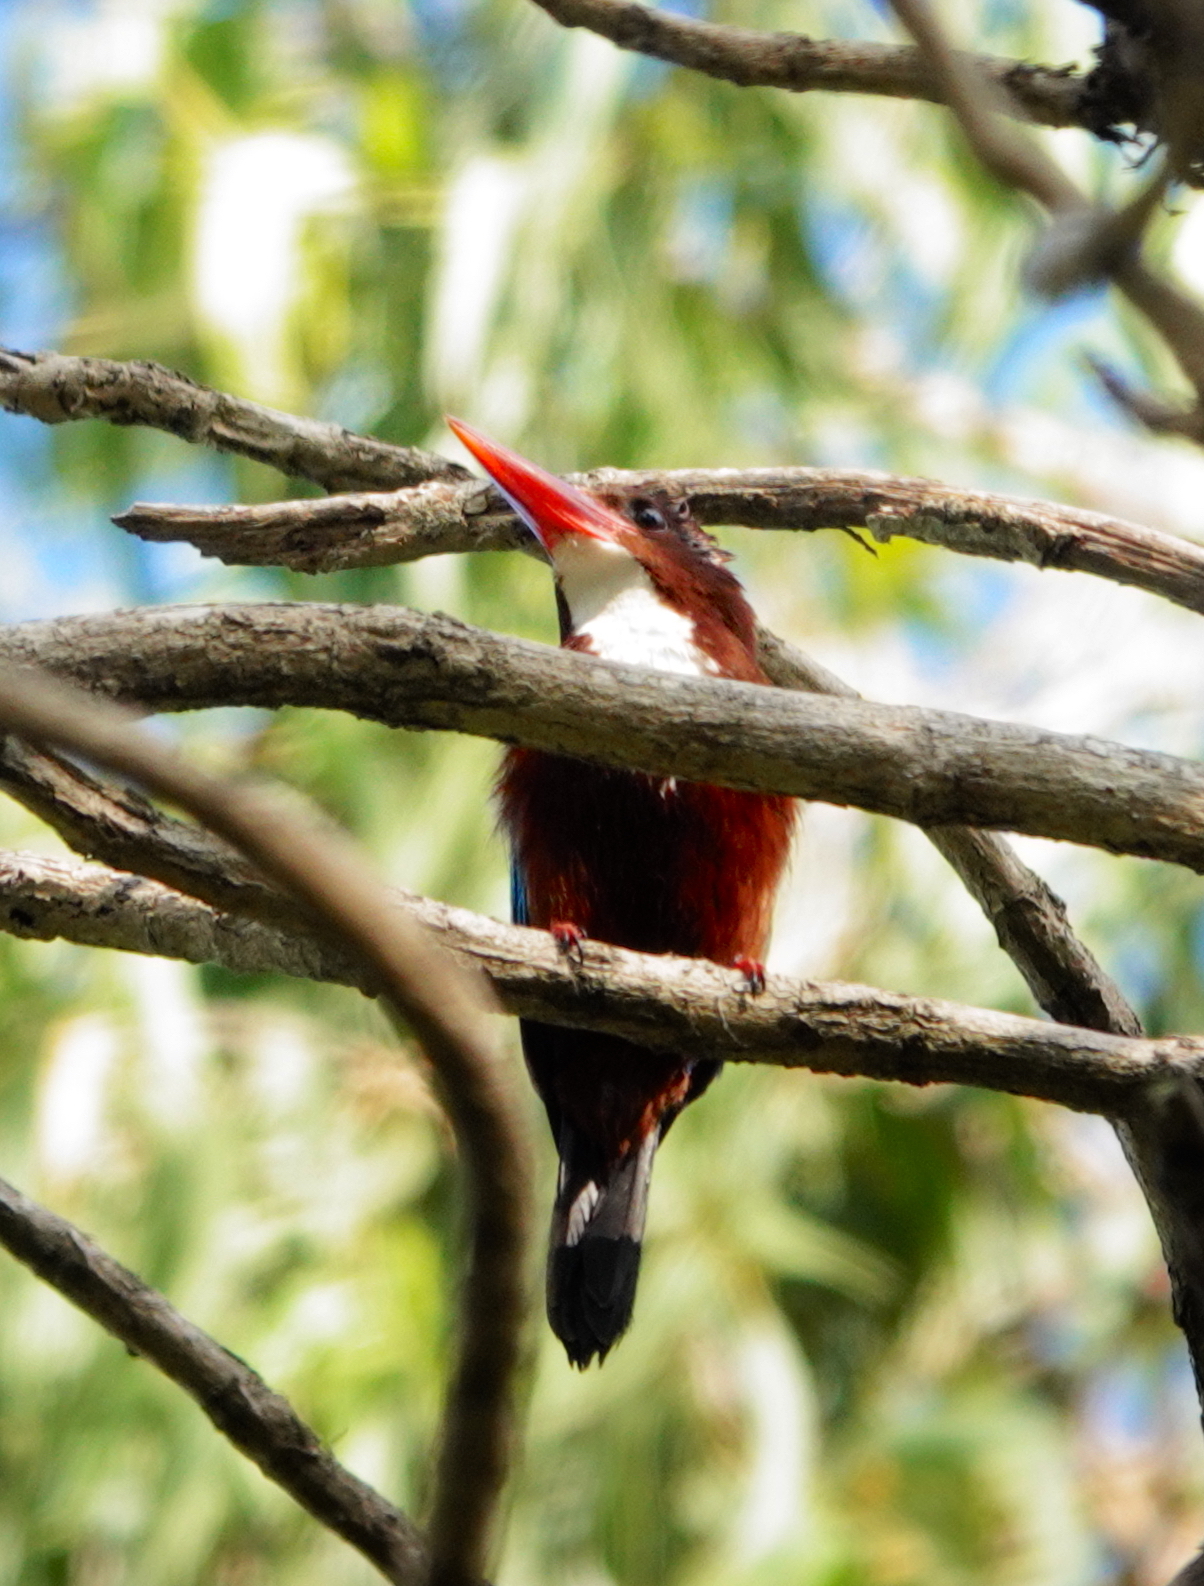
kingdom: Animalia
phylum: Chordata
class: Aves
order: Coraciiformes
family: Alcedinidae
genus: Halcyon
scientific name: Halcyon smyrnensis
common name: White-throated kingfisher
